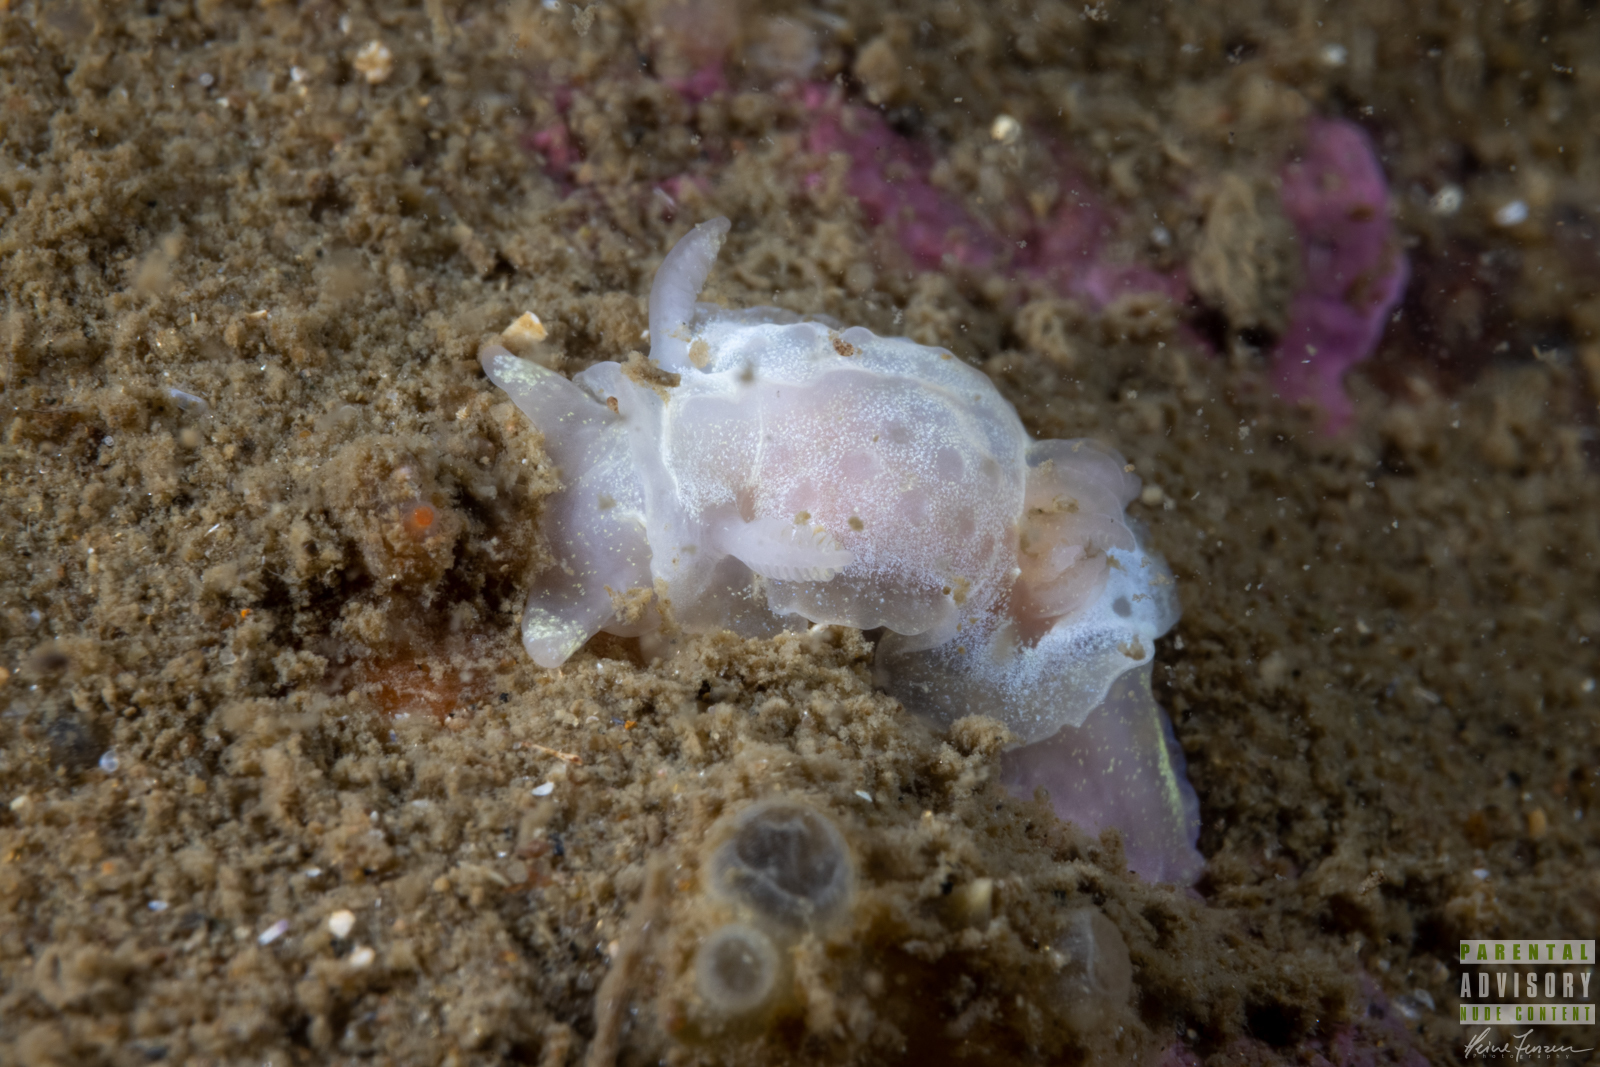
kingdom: Animalia
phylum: Mollusca
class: Gastropoda
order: Nudibranchia
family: Goniodorididae
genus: Okenia
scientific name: Okenia
